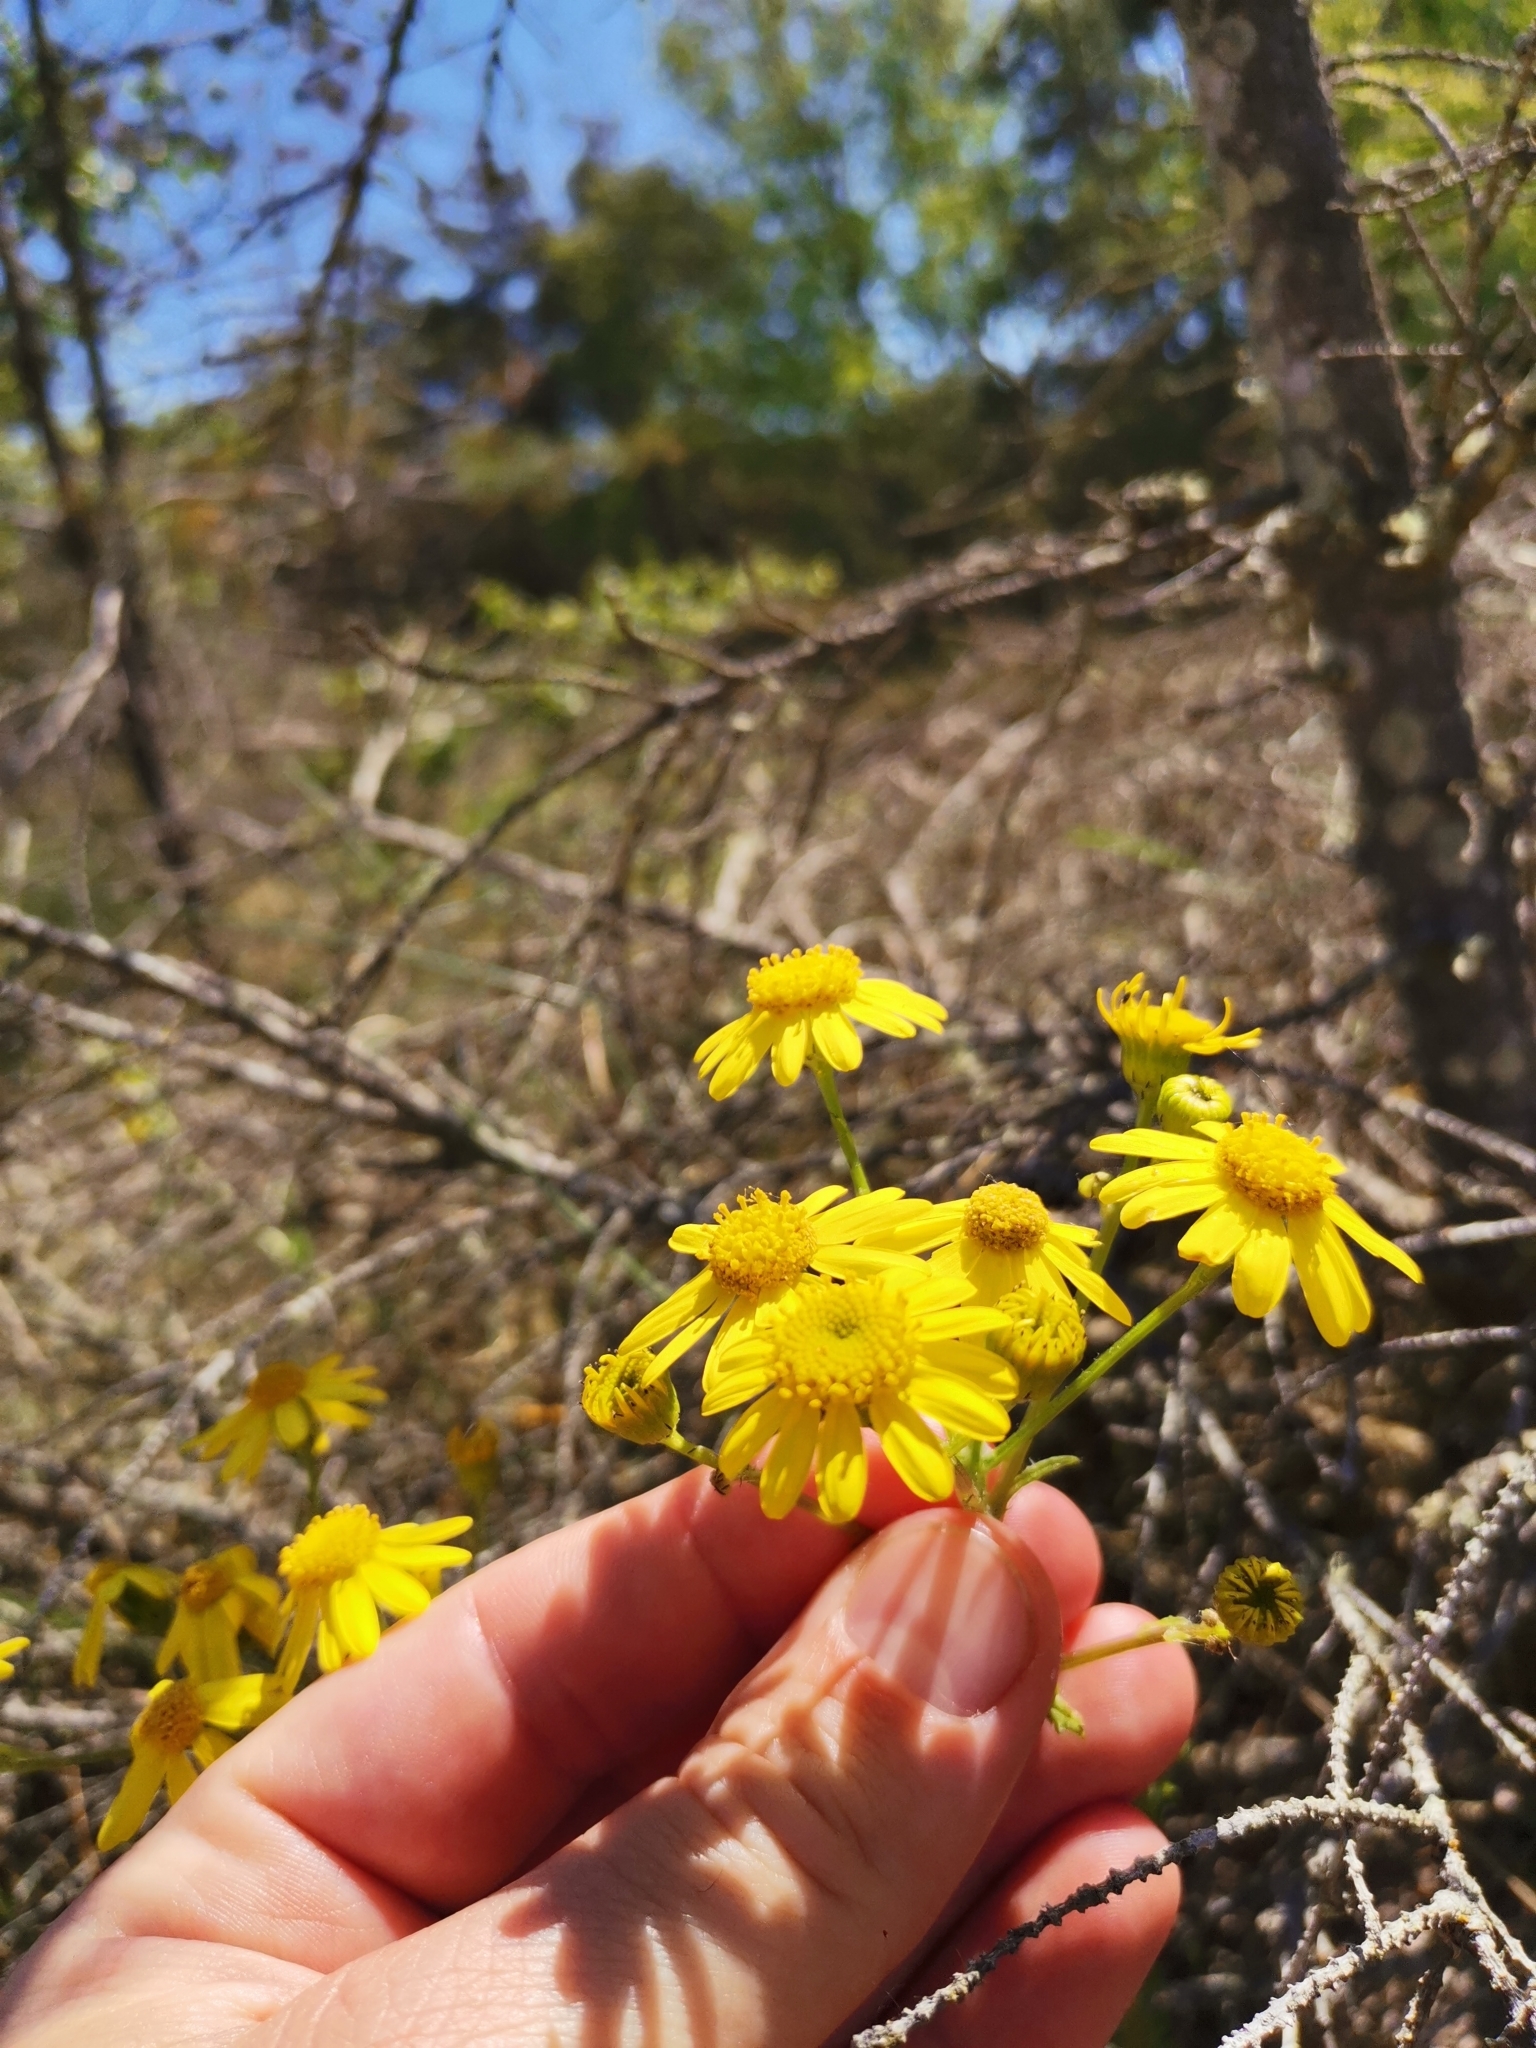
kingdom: Plantae
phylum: Tracheophyta
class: Magnoliopsida
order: Asterales
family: Asteraceae
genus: Senecio
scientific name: Senecio vernalis
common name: Eastern groundsel
